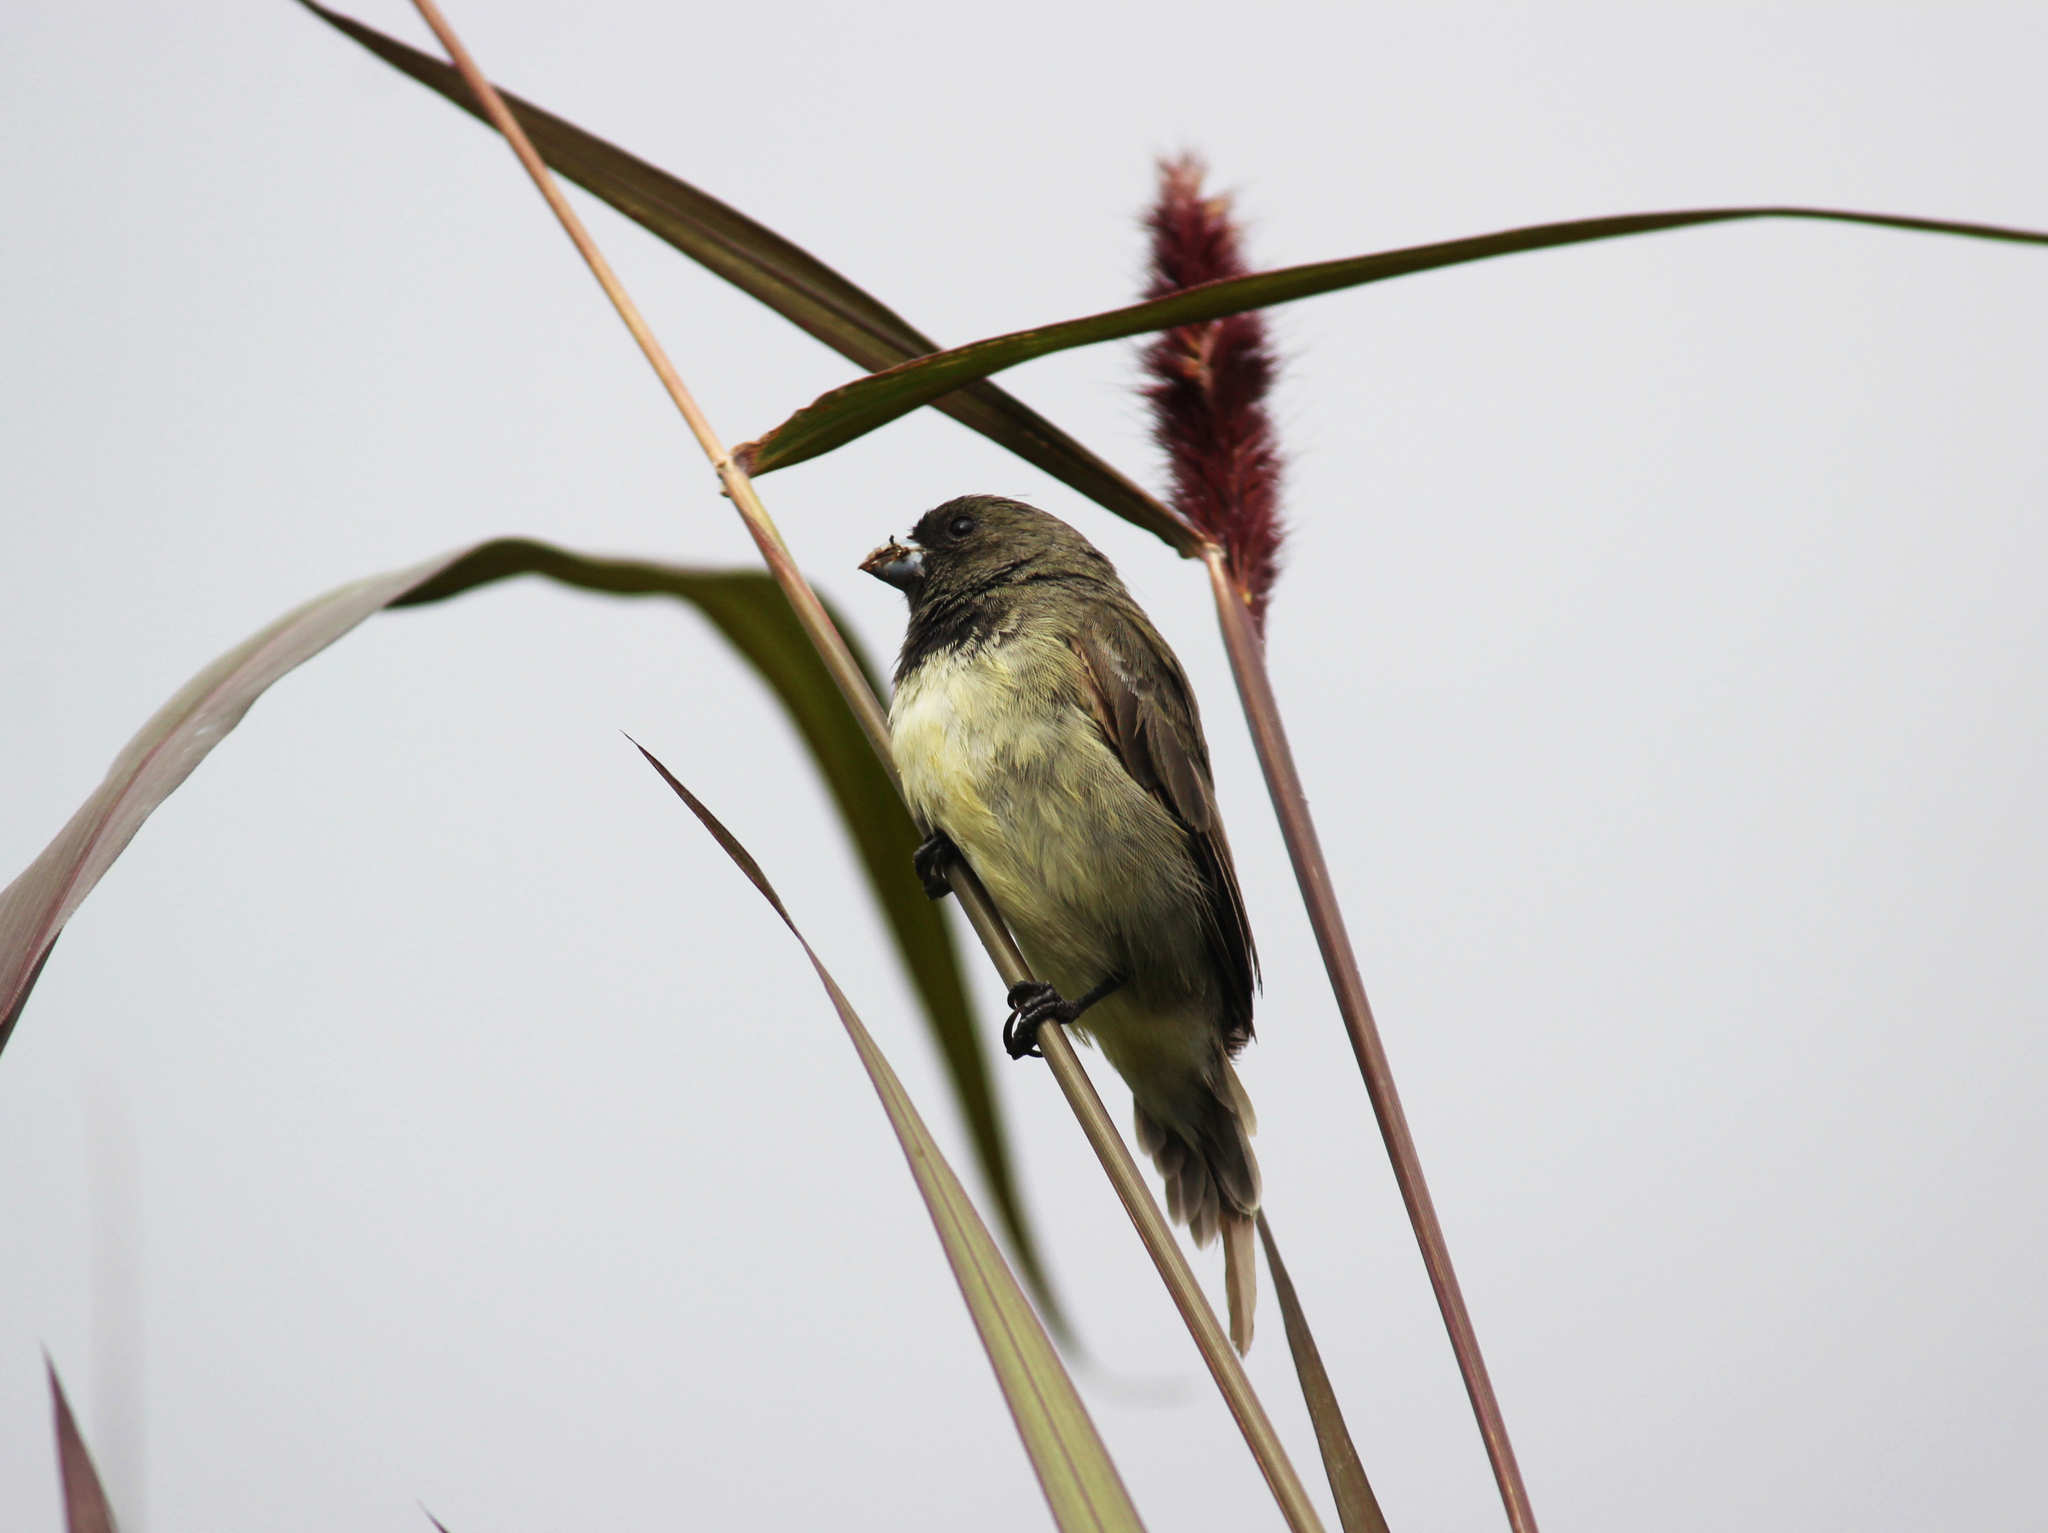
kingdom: Animalia
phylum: Chordata
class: Aves
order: Passeriformes
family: Thraupidae
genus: Sporophila
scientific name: Sporophila nigricollis
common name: Yellow-bellied seedeater
